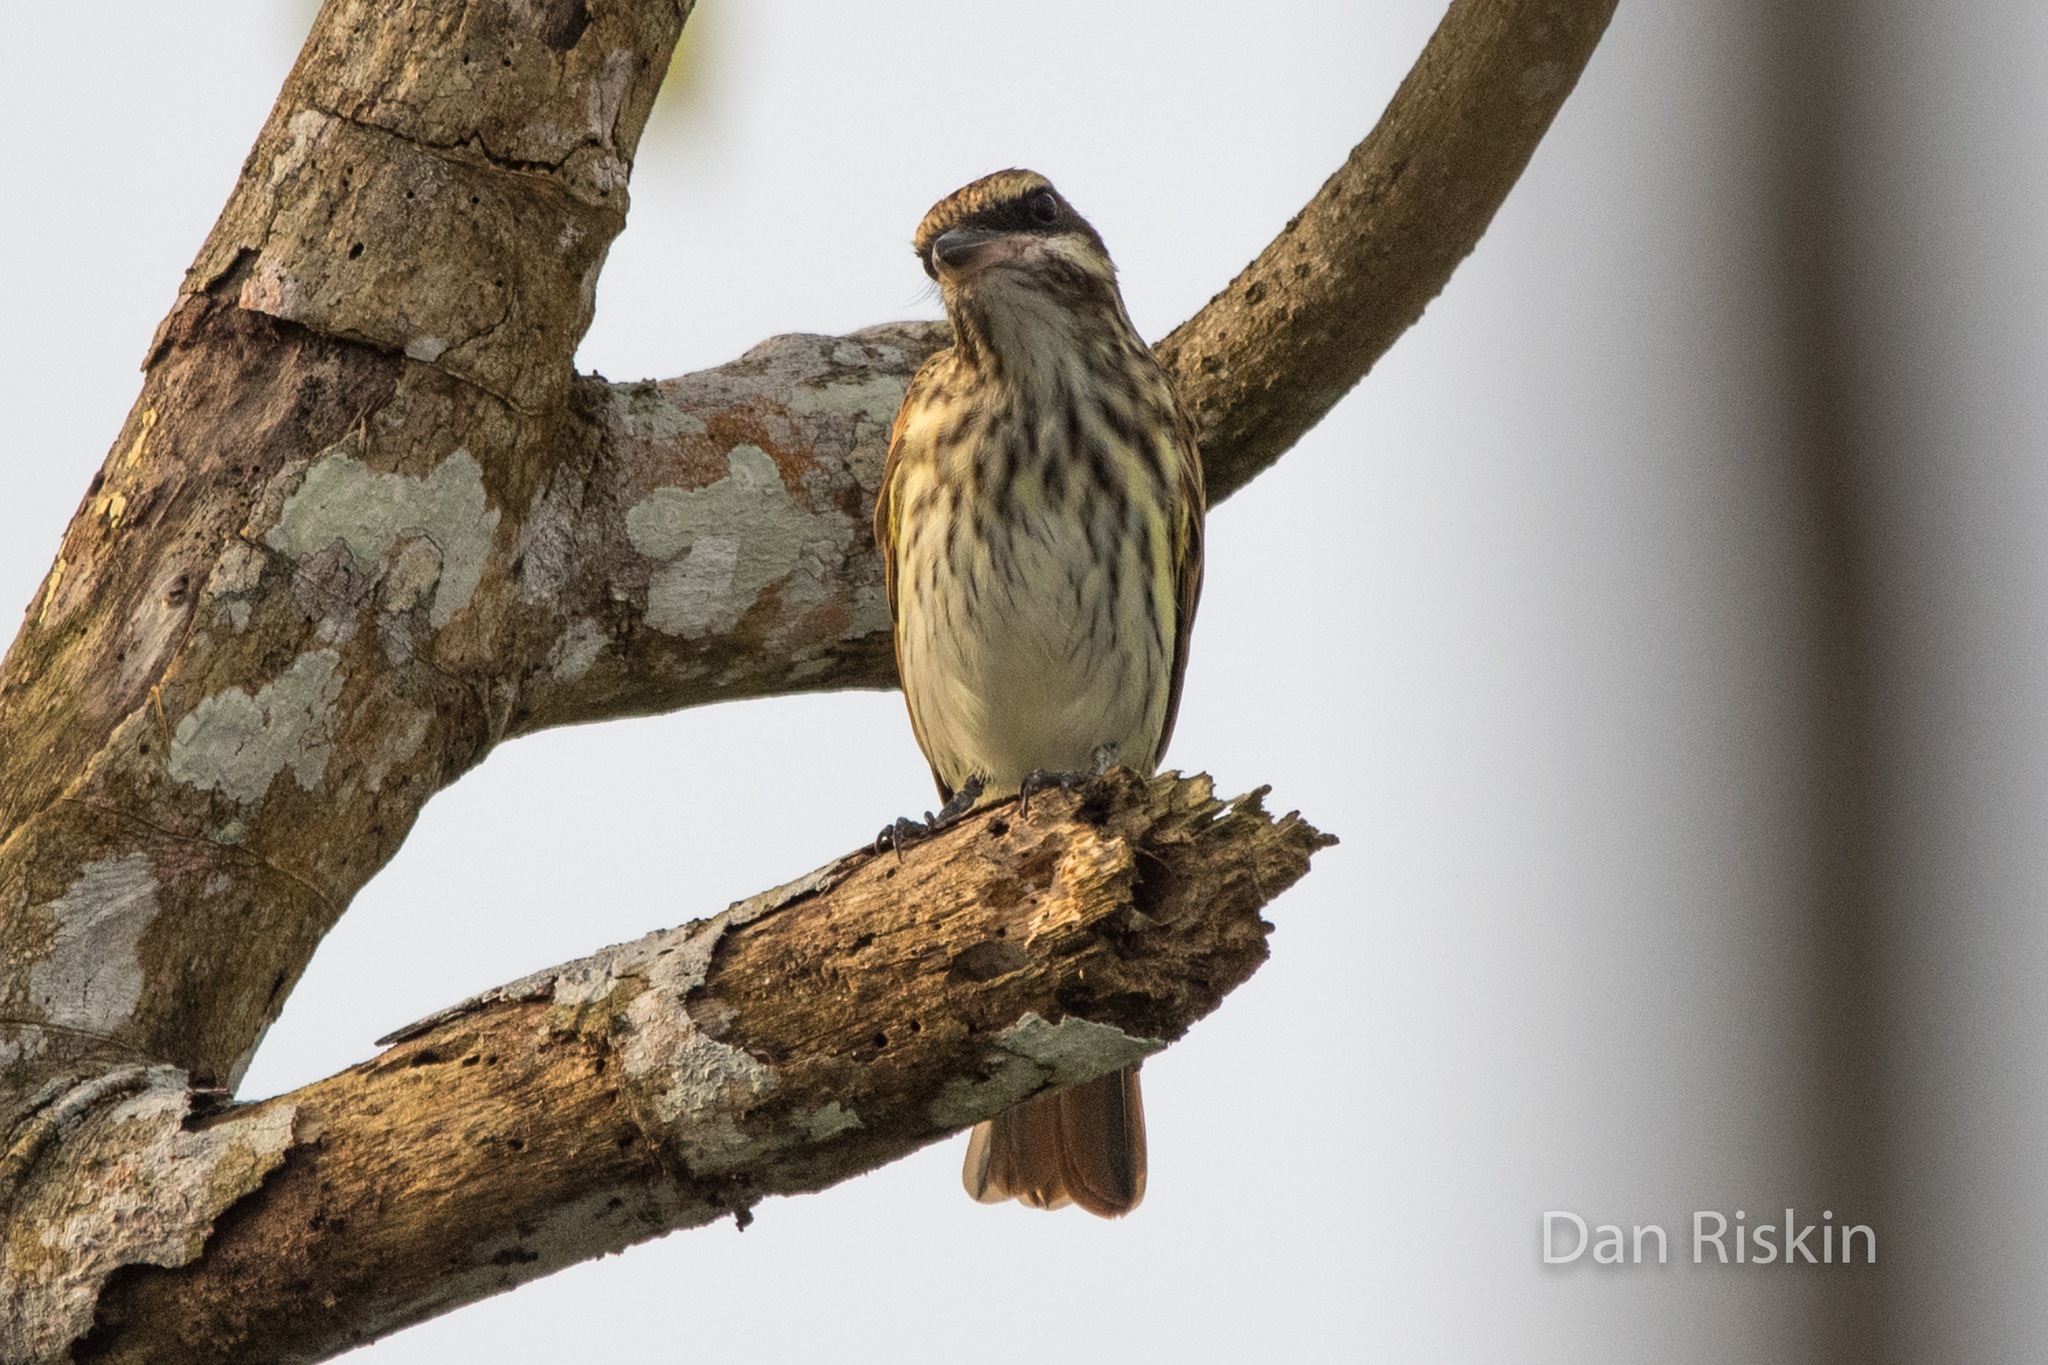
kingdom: Animalia
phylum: Chordata
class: Aves
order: Passeriformes
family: Tyrannidae
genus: Myiodynastes
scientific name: Myiodynastes maculatus
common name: Streaked flycatcher
